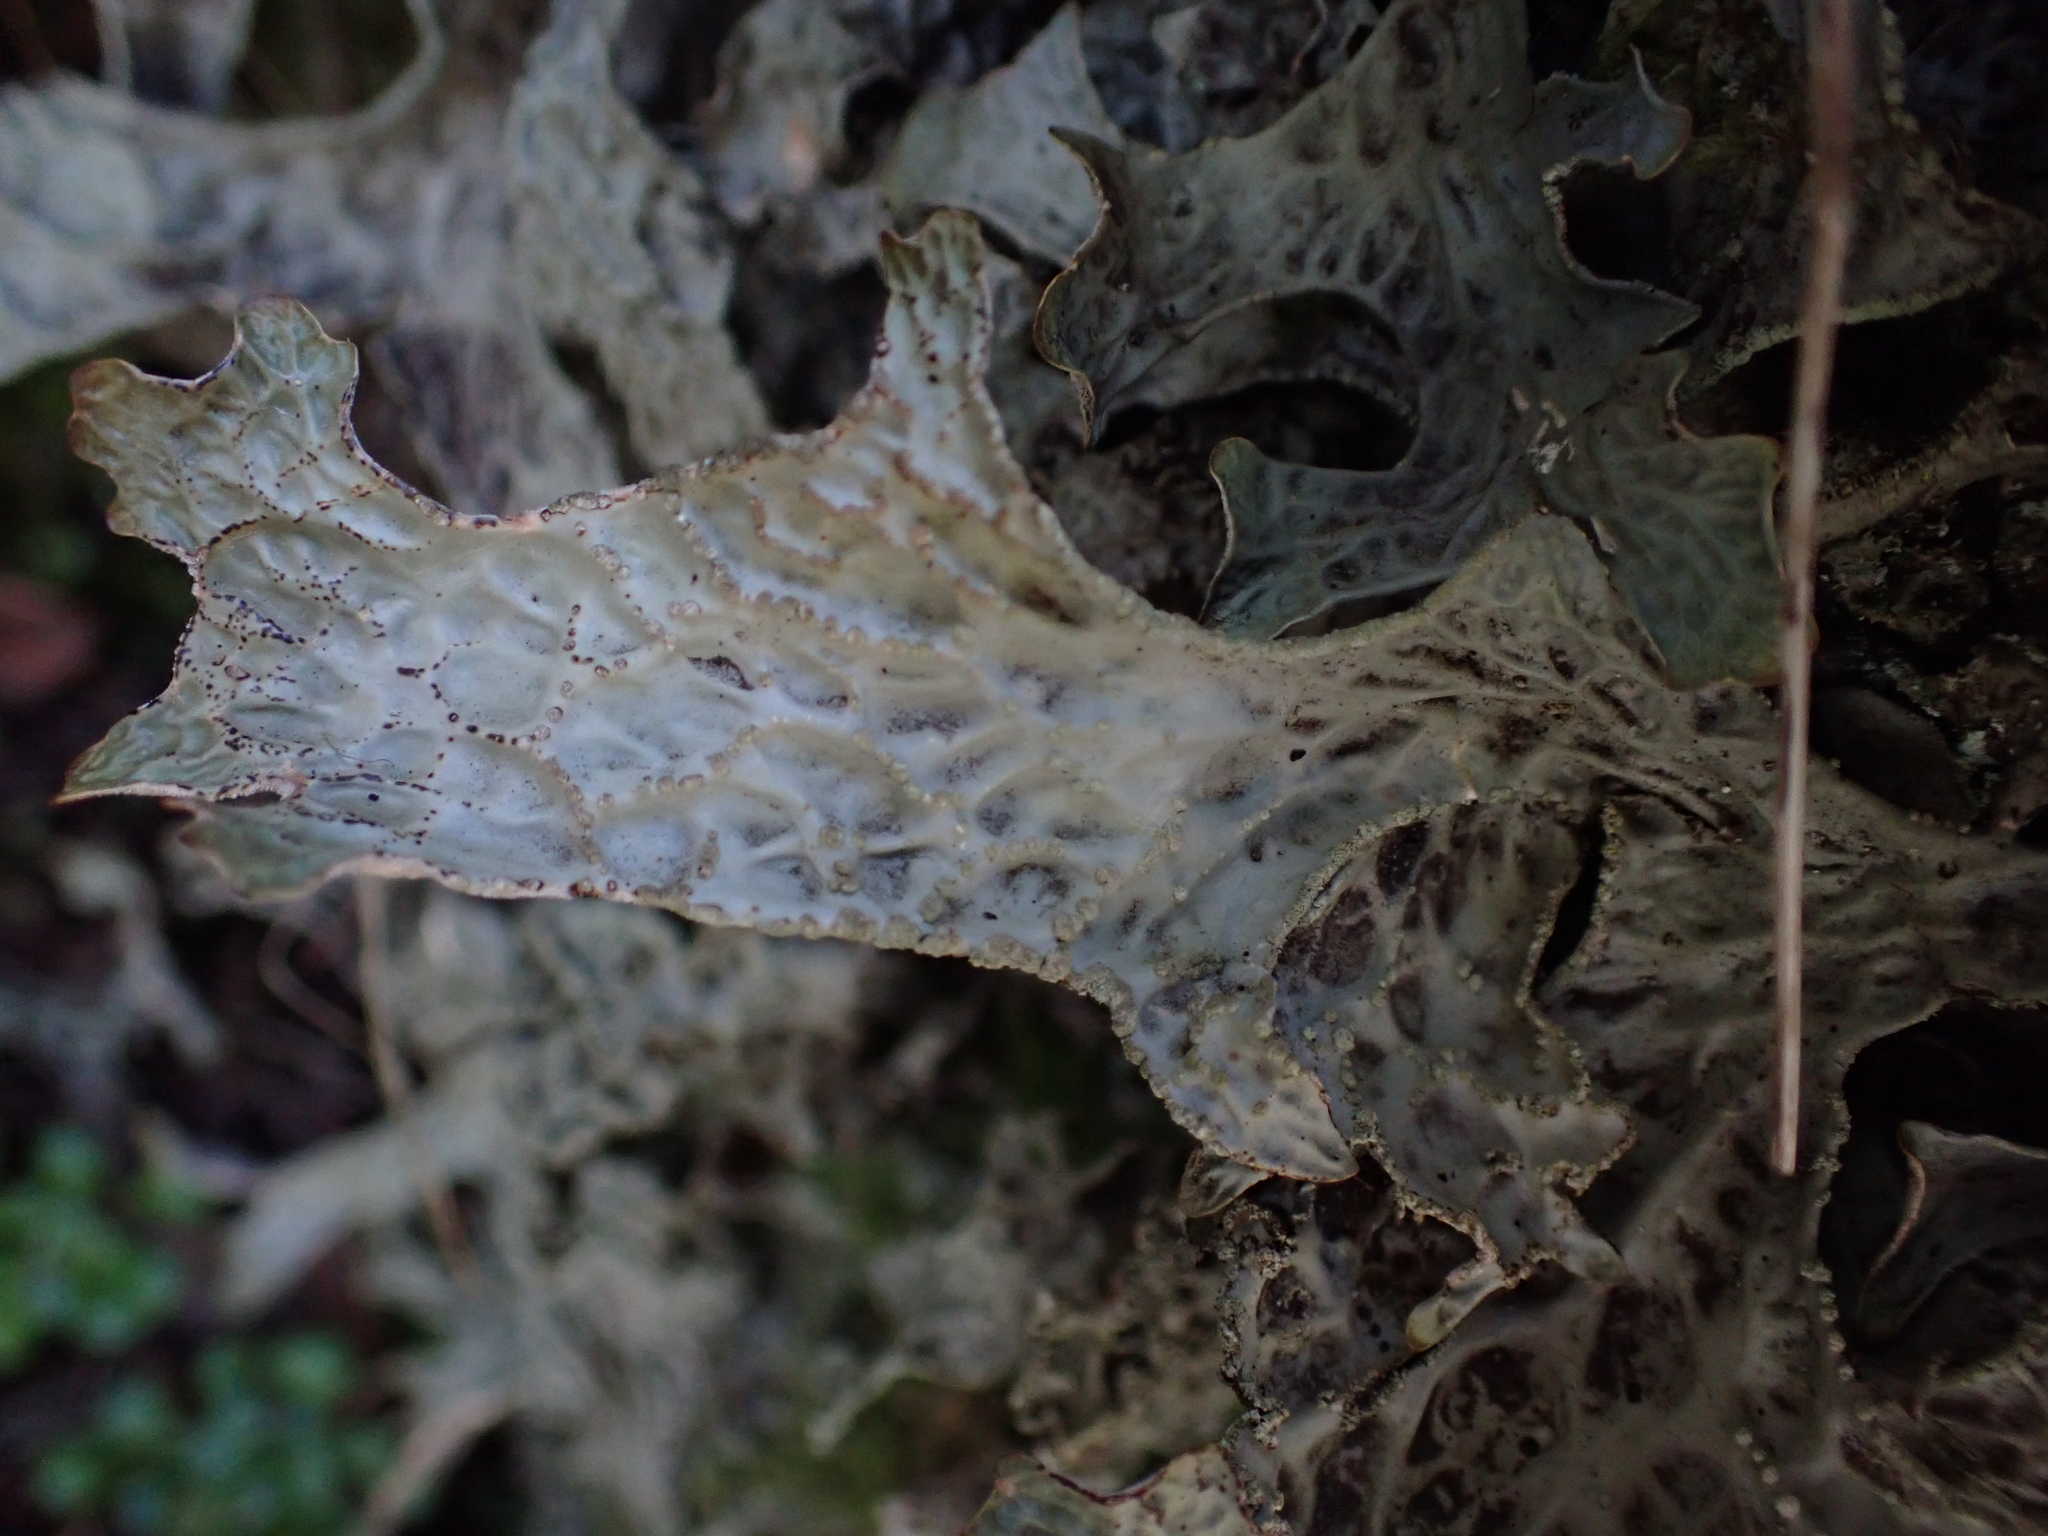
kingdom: Fungi
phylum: Ascomycota
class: Lecanoromycetes
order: Peltigerales
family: Lobariaceae
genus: Lobaria
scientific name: Lobaria pulmonaria
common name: Lungwort
